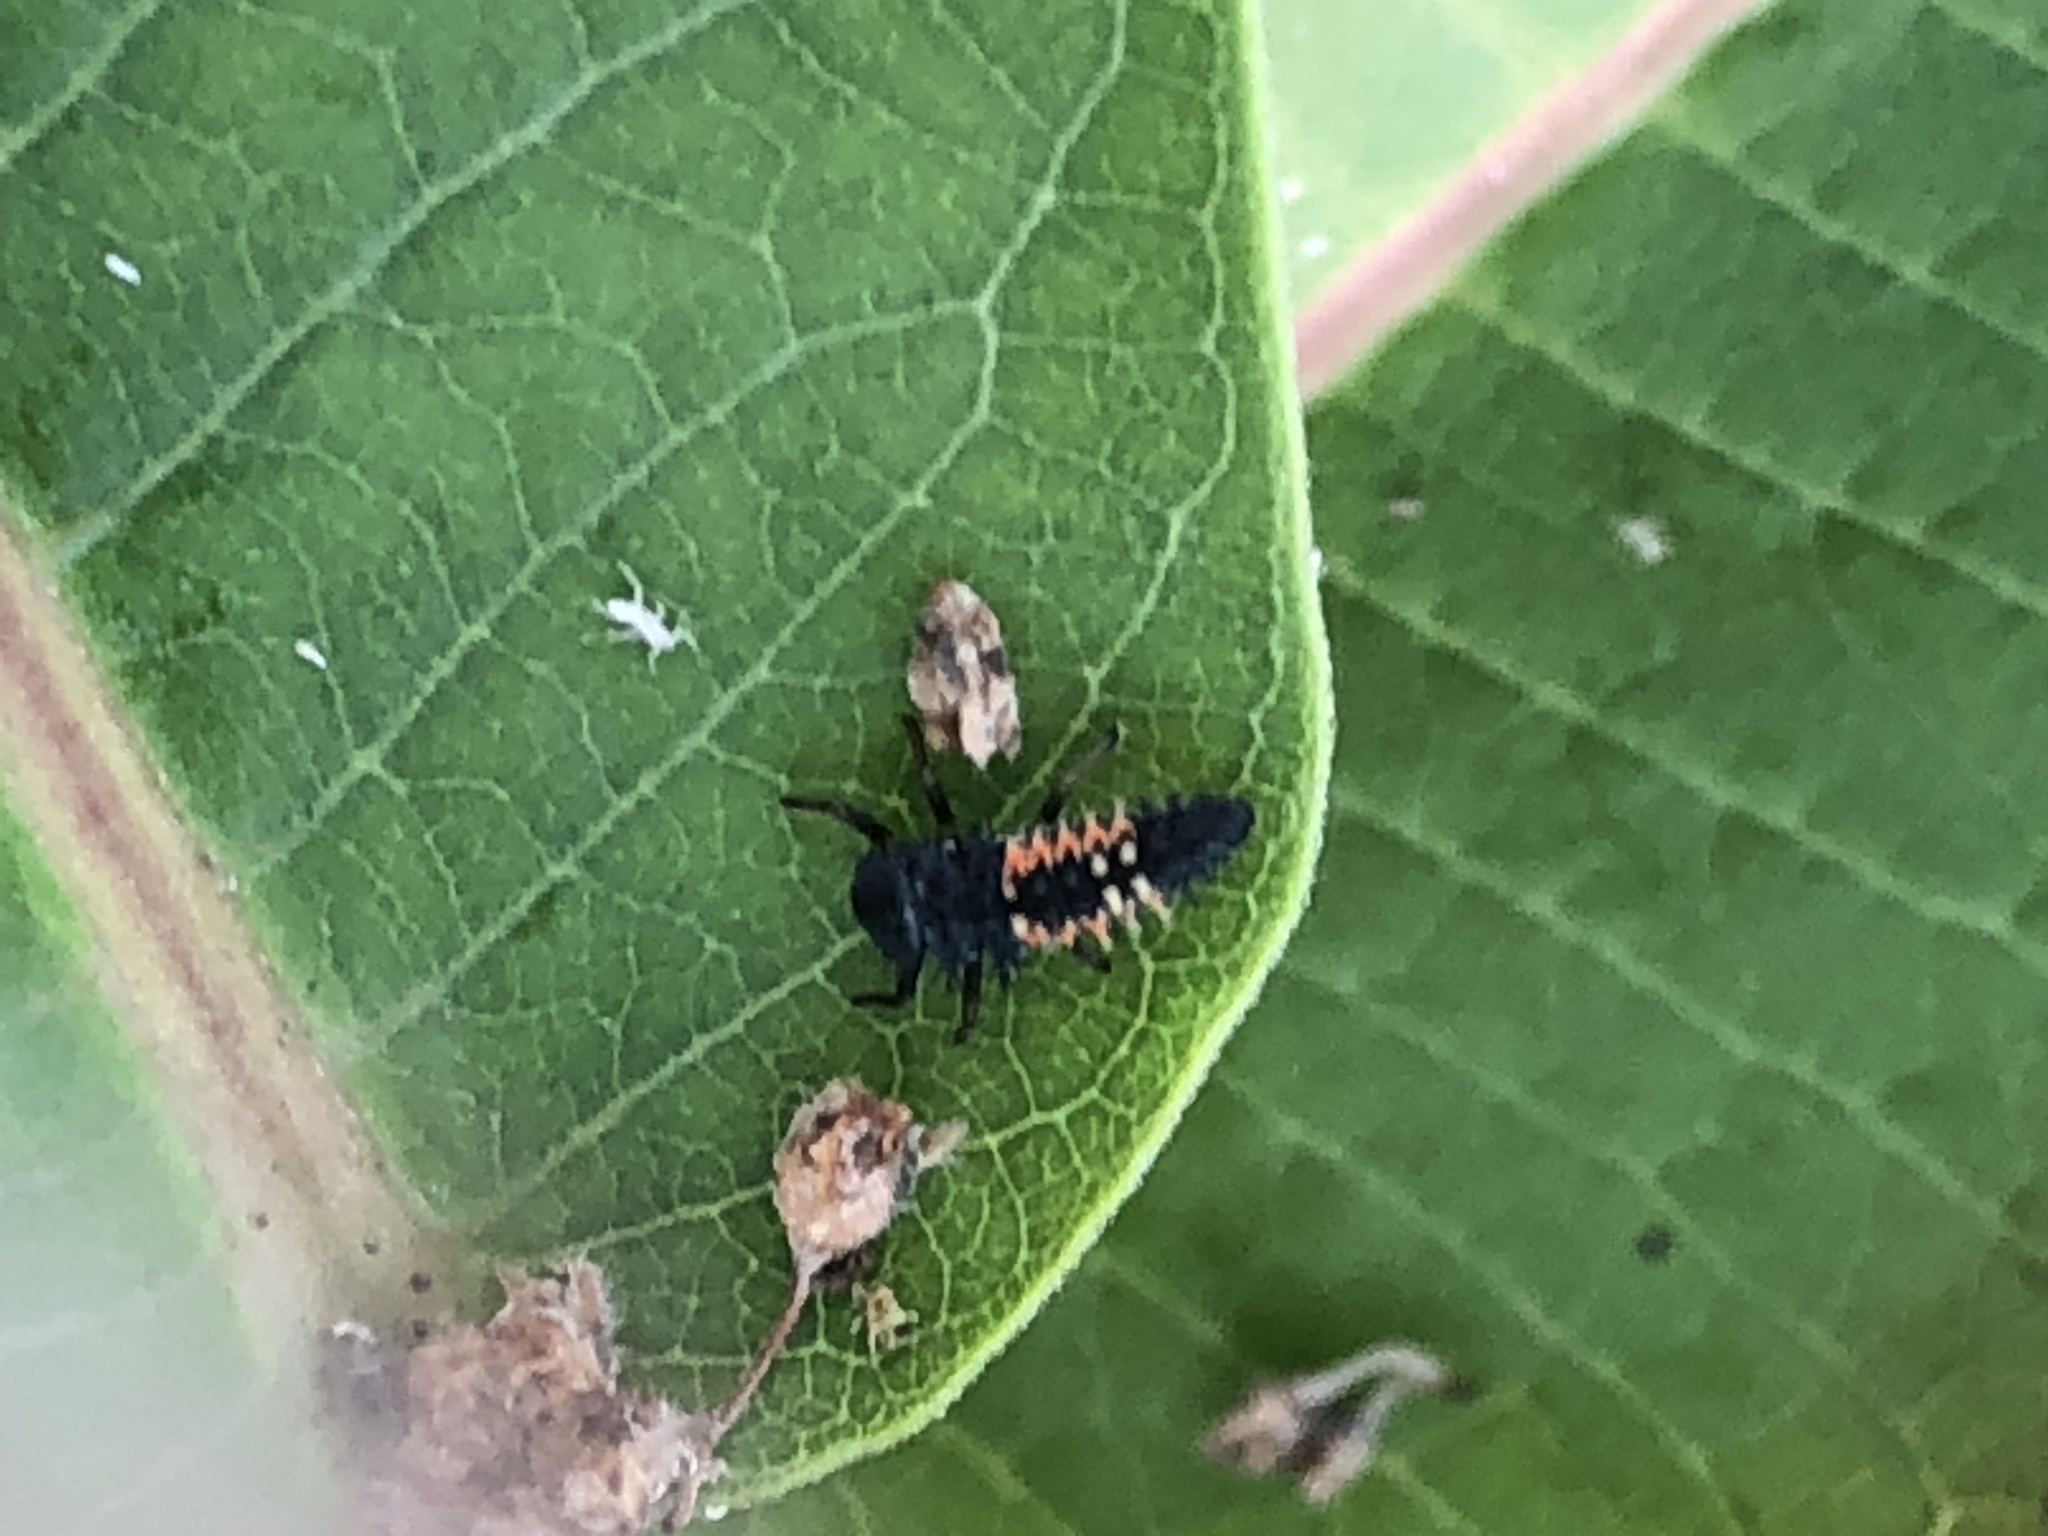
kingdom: Animalia
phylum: Arthropoda
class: Insecta
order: Coleoptera
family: Coccinellidae
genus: Harmonia
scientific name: Harmonia axyridis
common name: Harlequin ladybird
